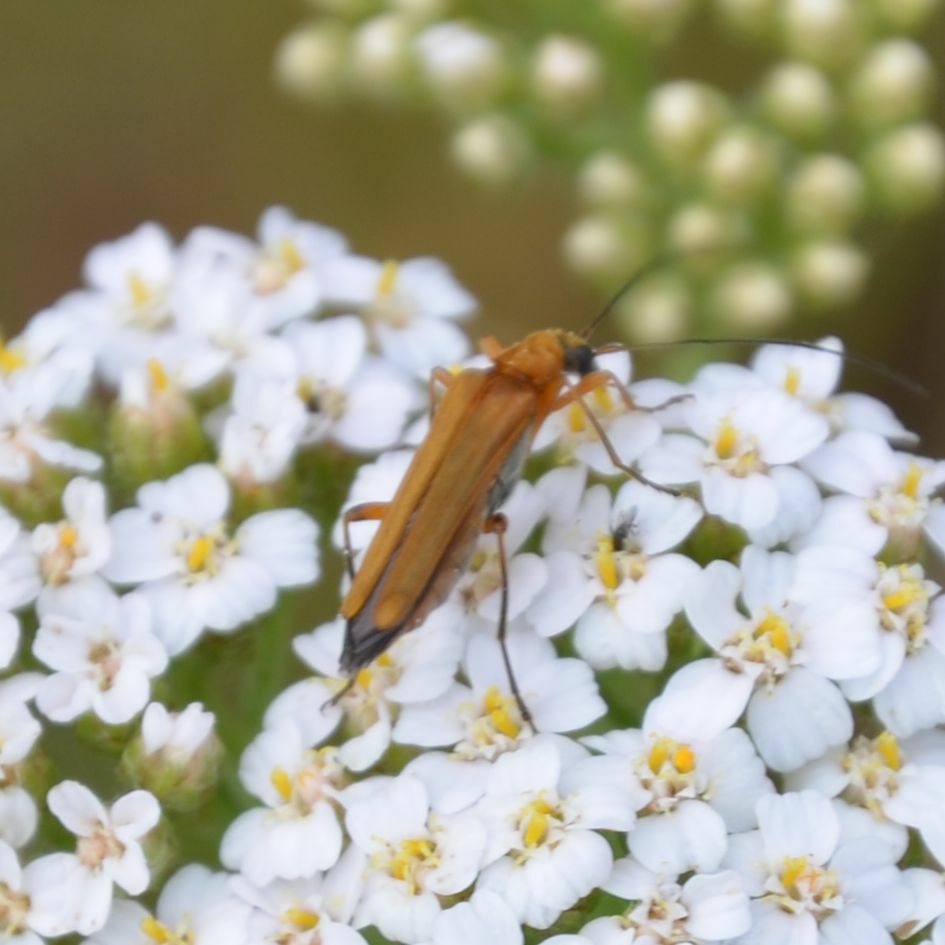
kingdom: Animalia
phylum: Arthropoda
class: Insecta
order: Coleoptera
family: Oedemeridae
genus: Oedemera
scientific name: Oedemera podagrariae
